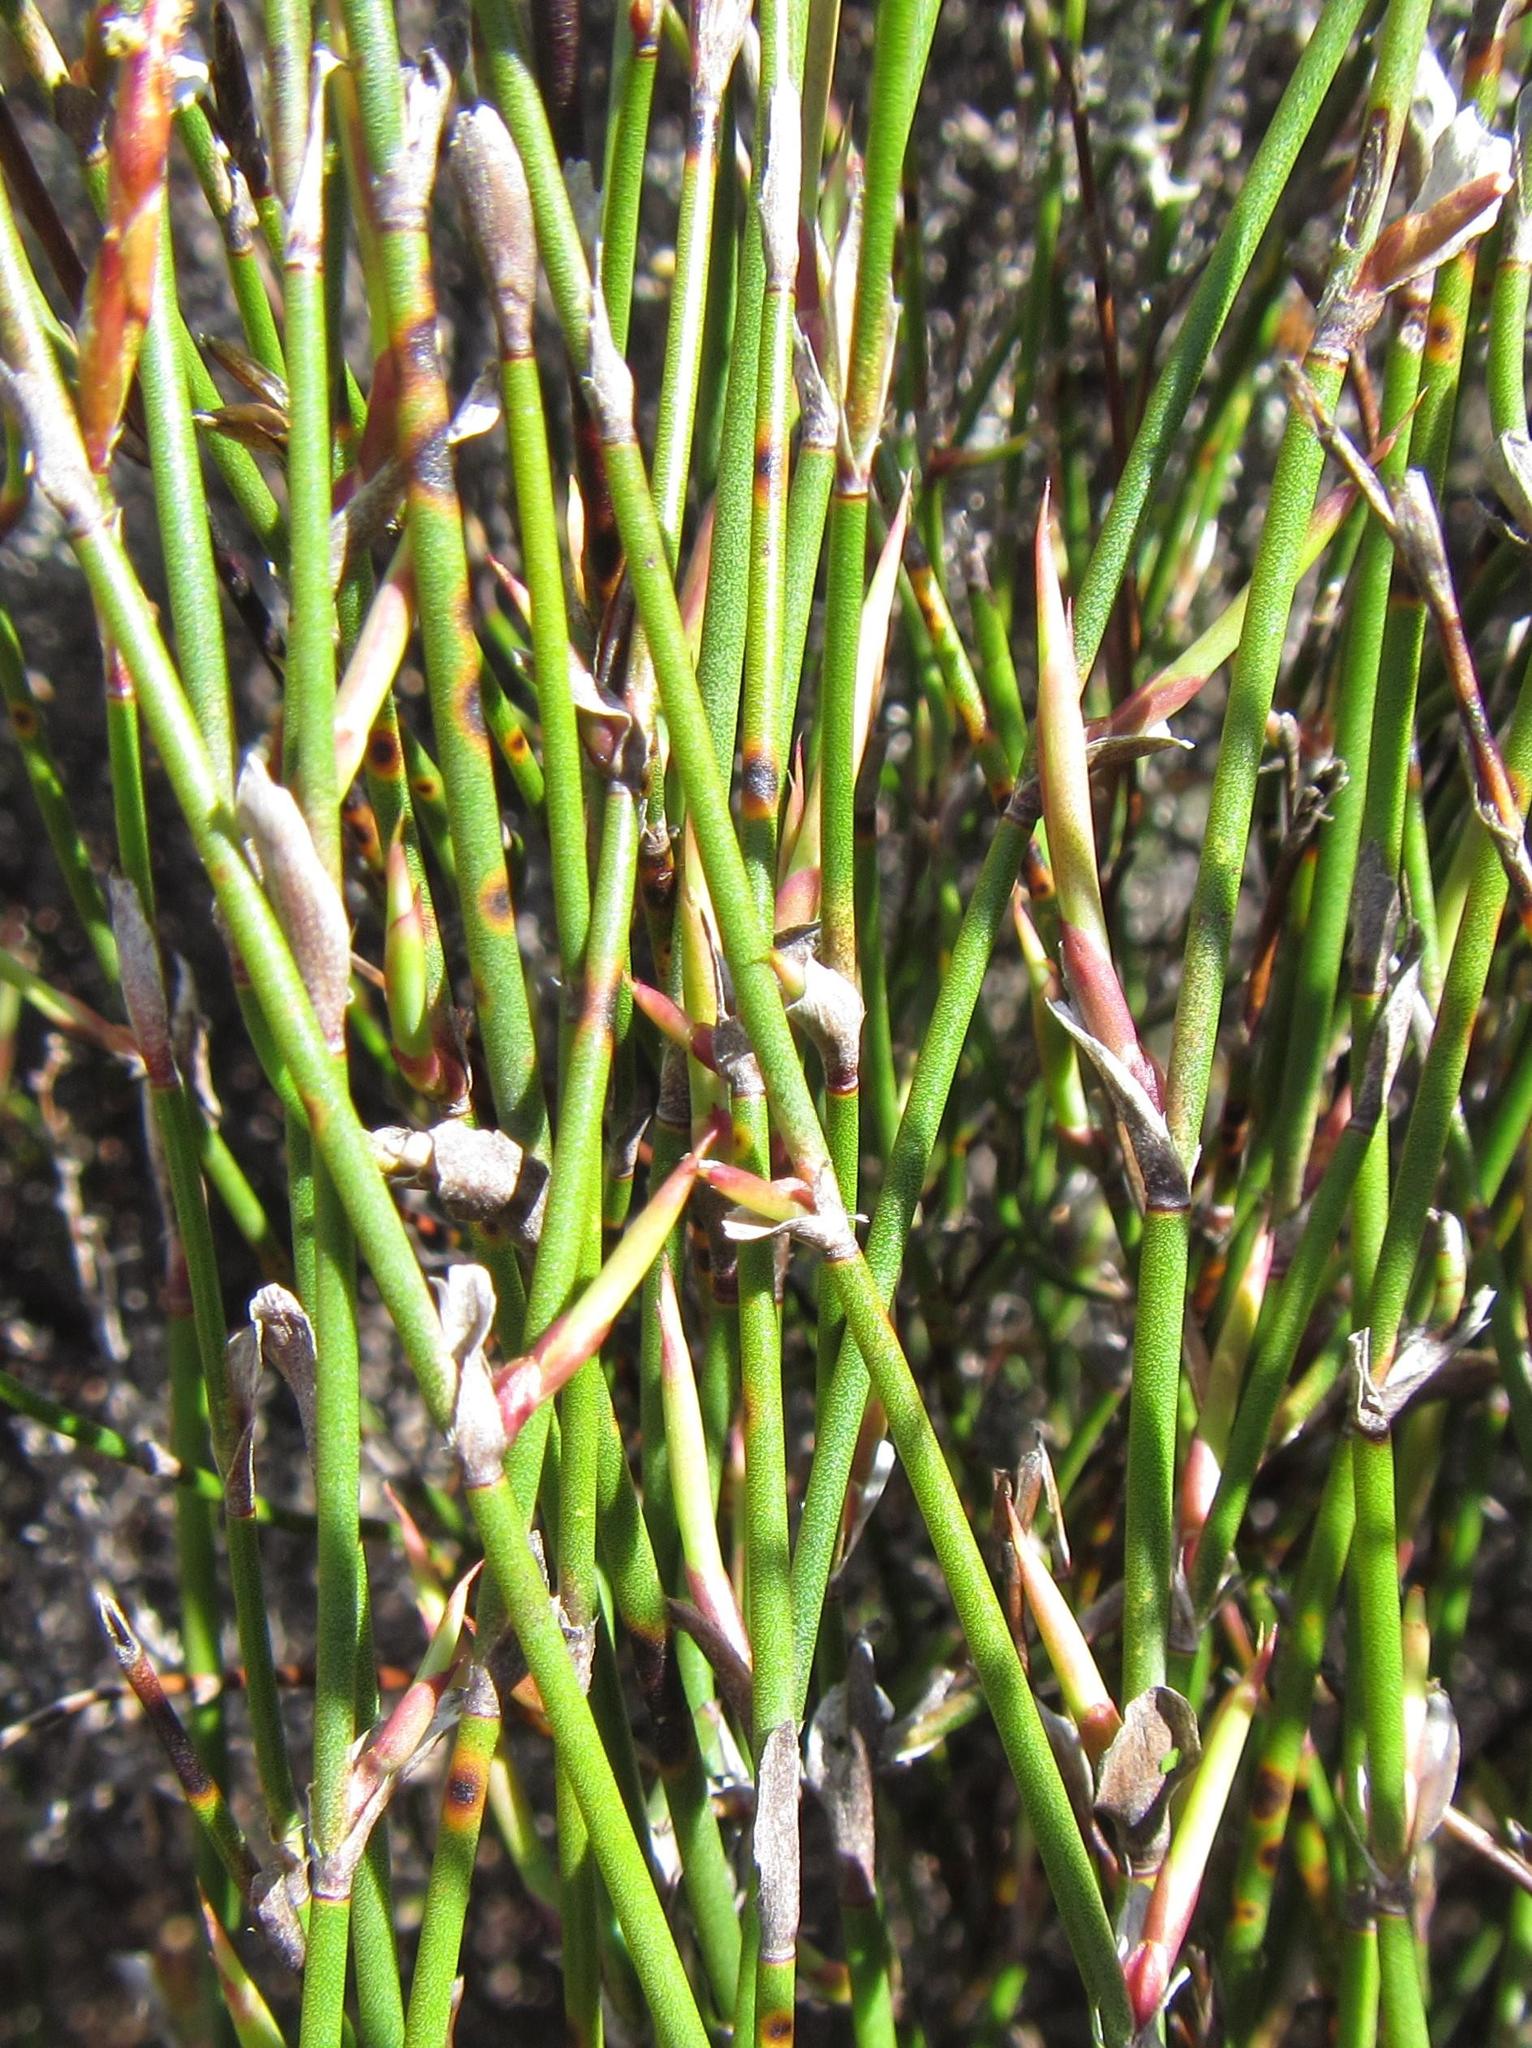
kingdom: Plantae
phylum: Tracheophyta
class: Liliopsida
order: Poales
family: Restionaceae
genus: Restio
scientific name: Restio vimineus
